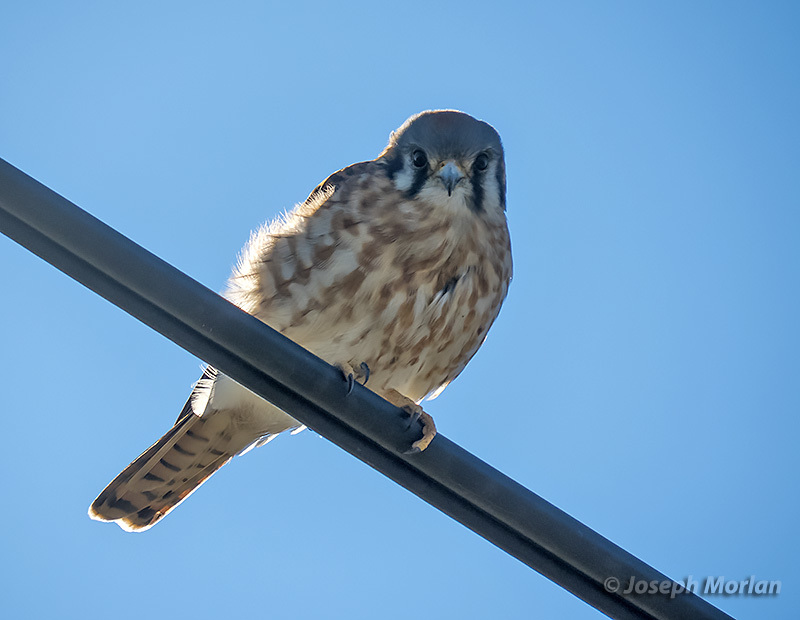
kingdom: Animalia
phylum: Chordata
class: Aves
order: Falconiformes
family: Falconidae
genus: Falco
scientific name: Falco sparverius
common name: American kestrel
